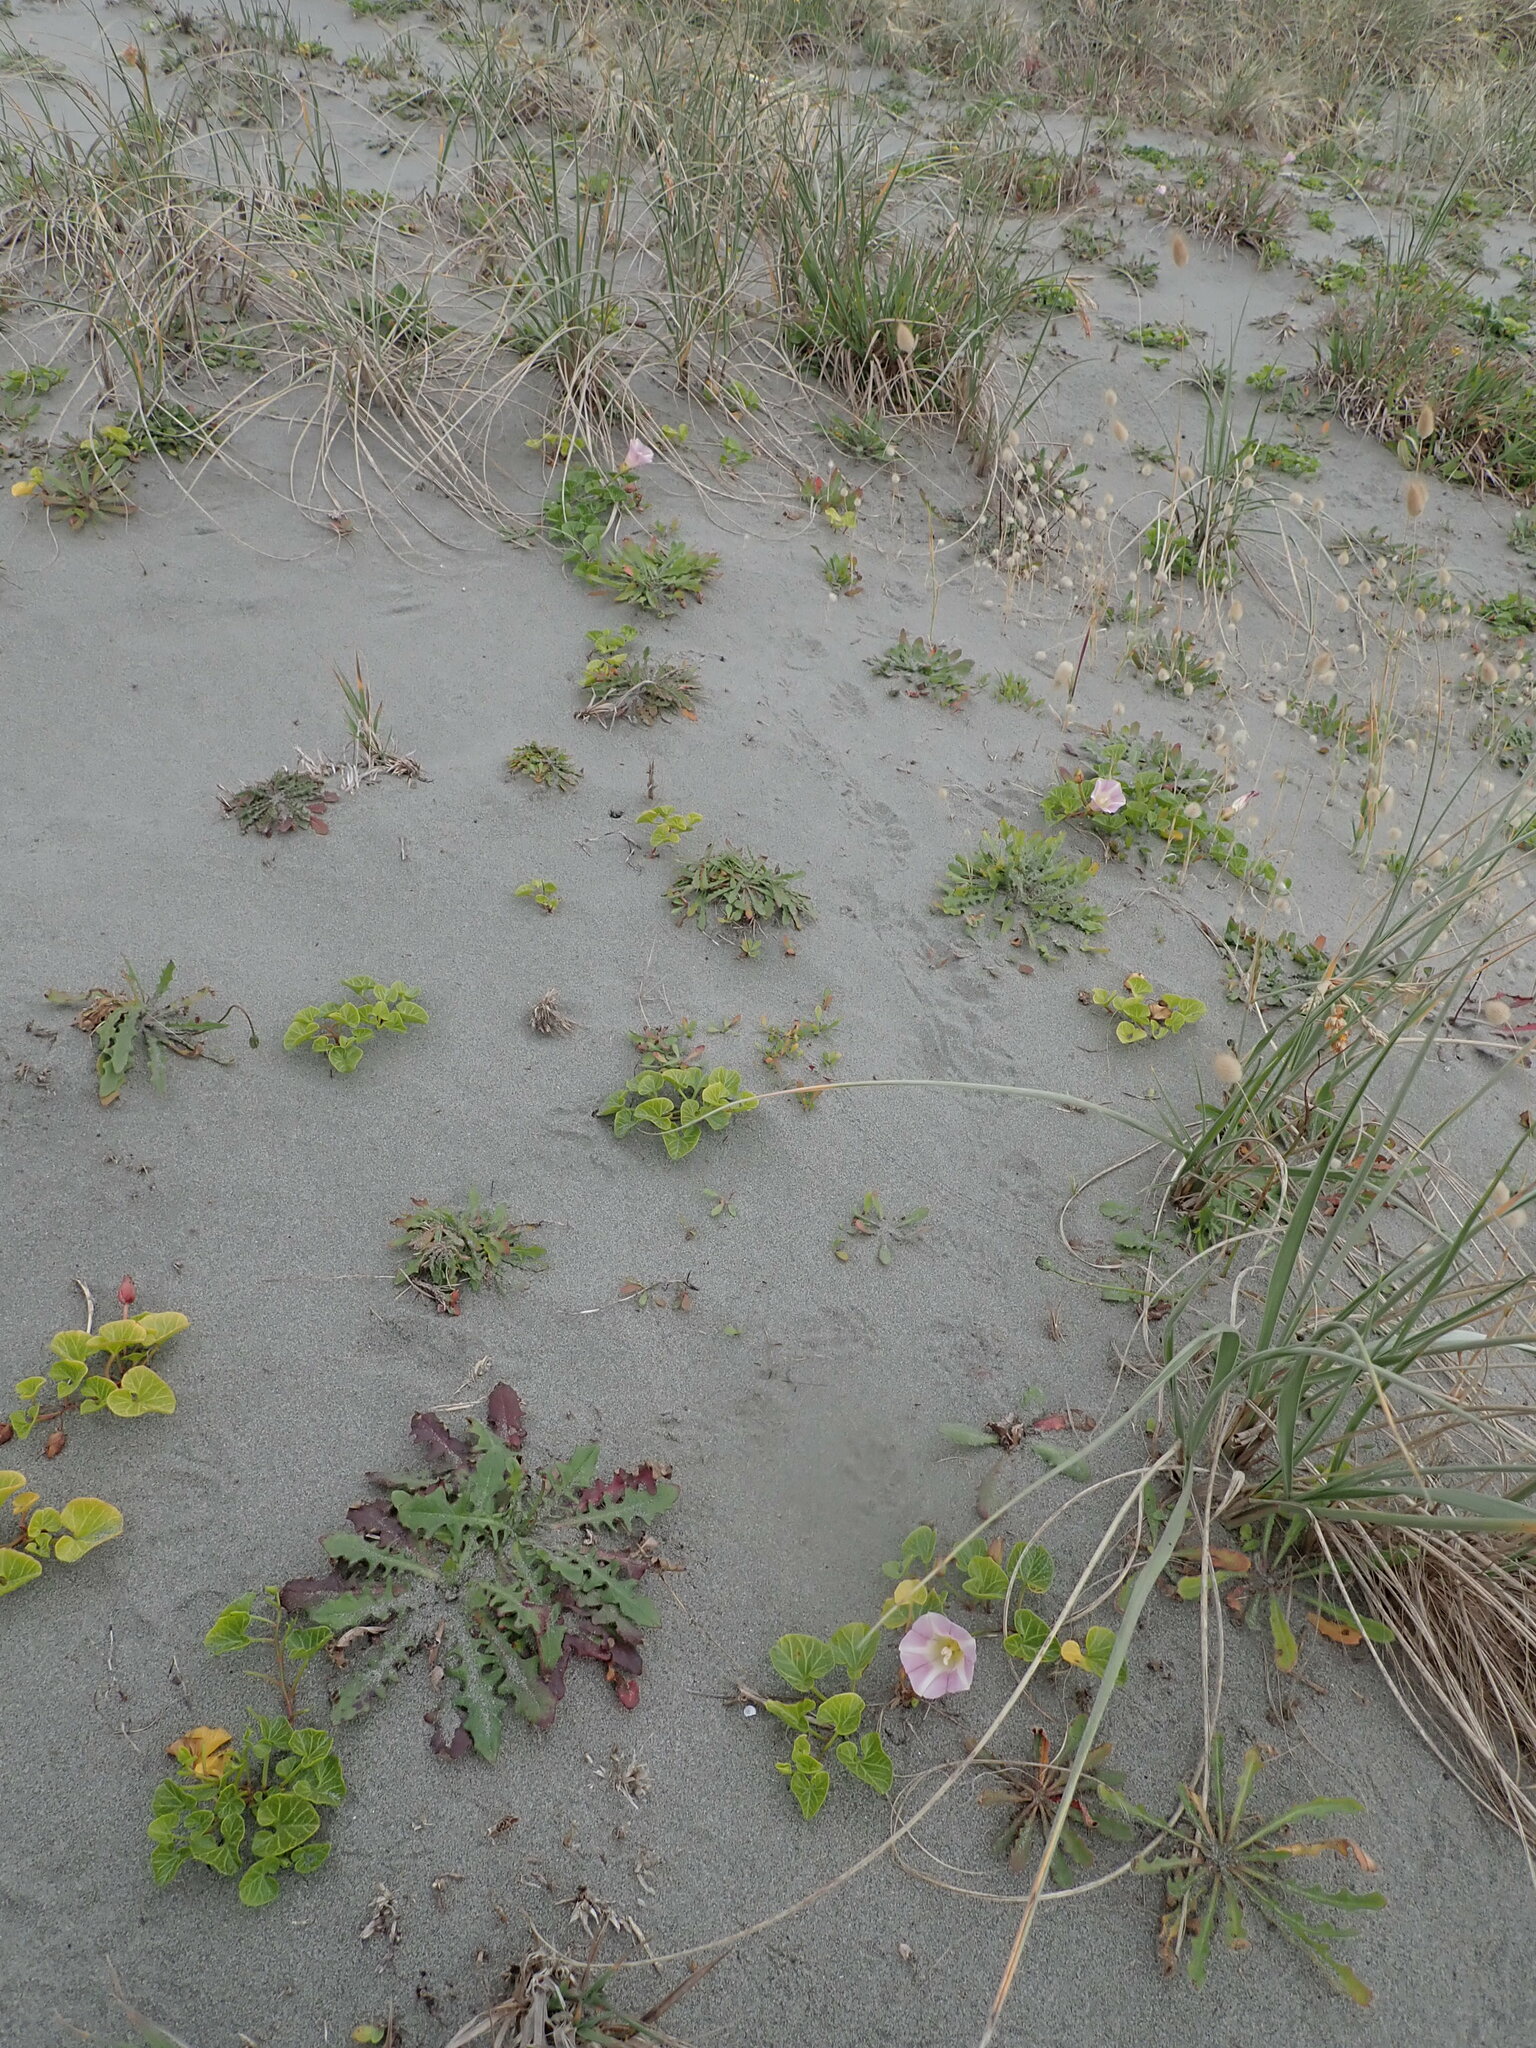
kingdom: Plantae
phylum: Tracheophyta
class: Magnoliopsida
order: Solanales
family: Convolvulaceae
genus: Calystegia
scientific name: Calystegia soldanella
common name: Sea bindweed
